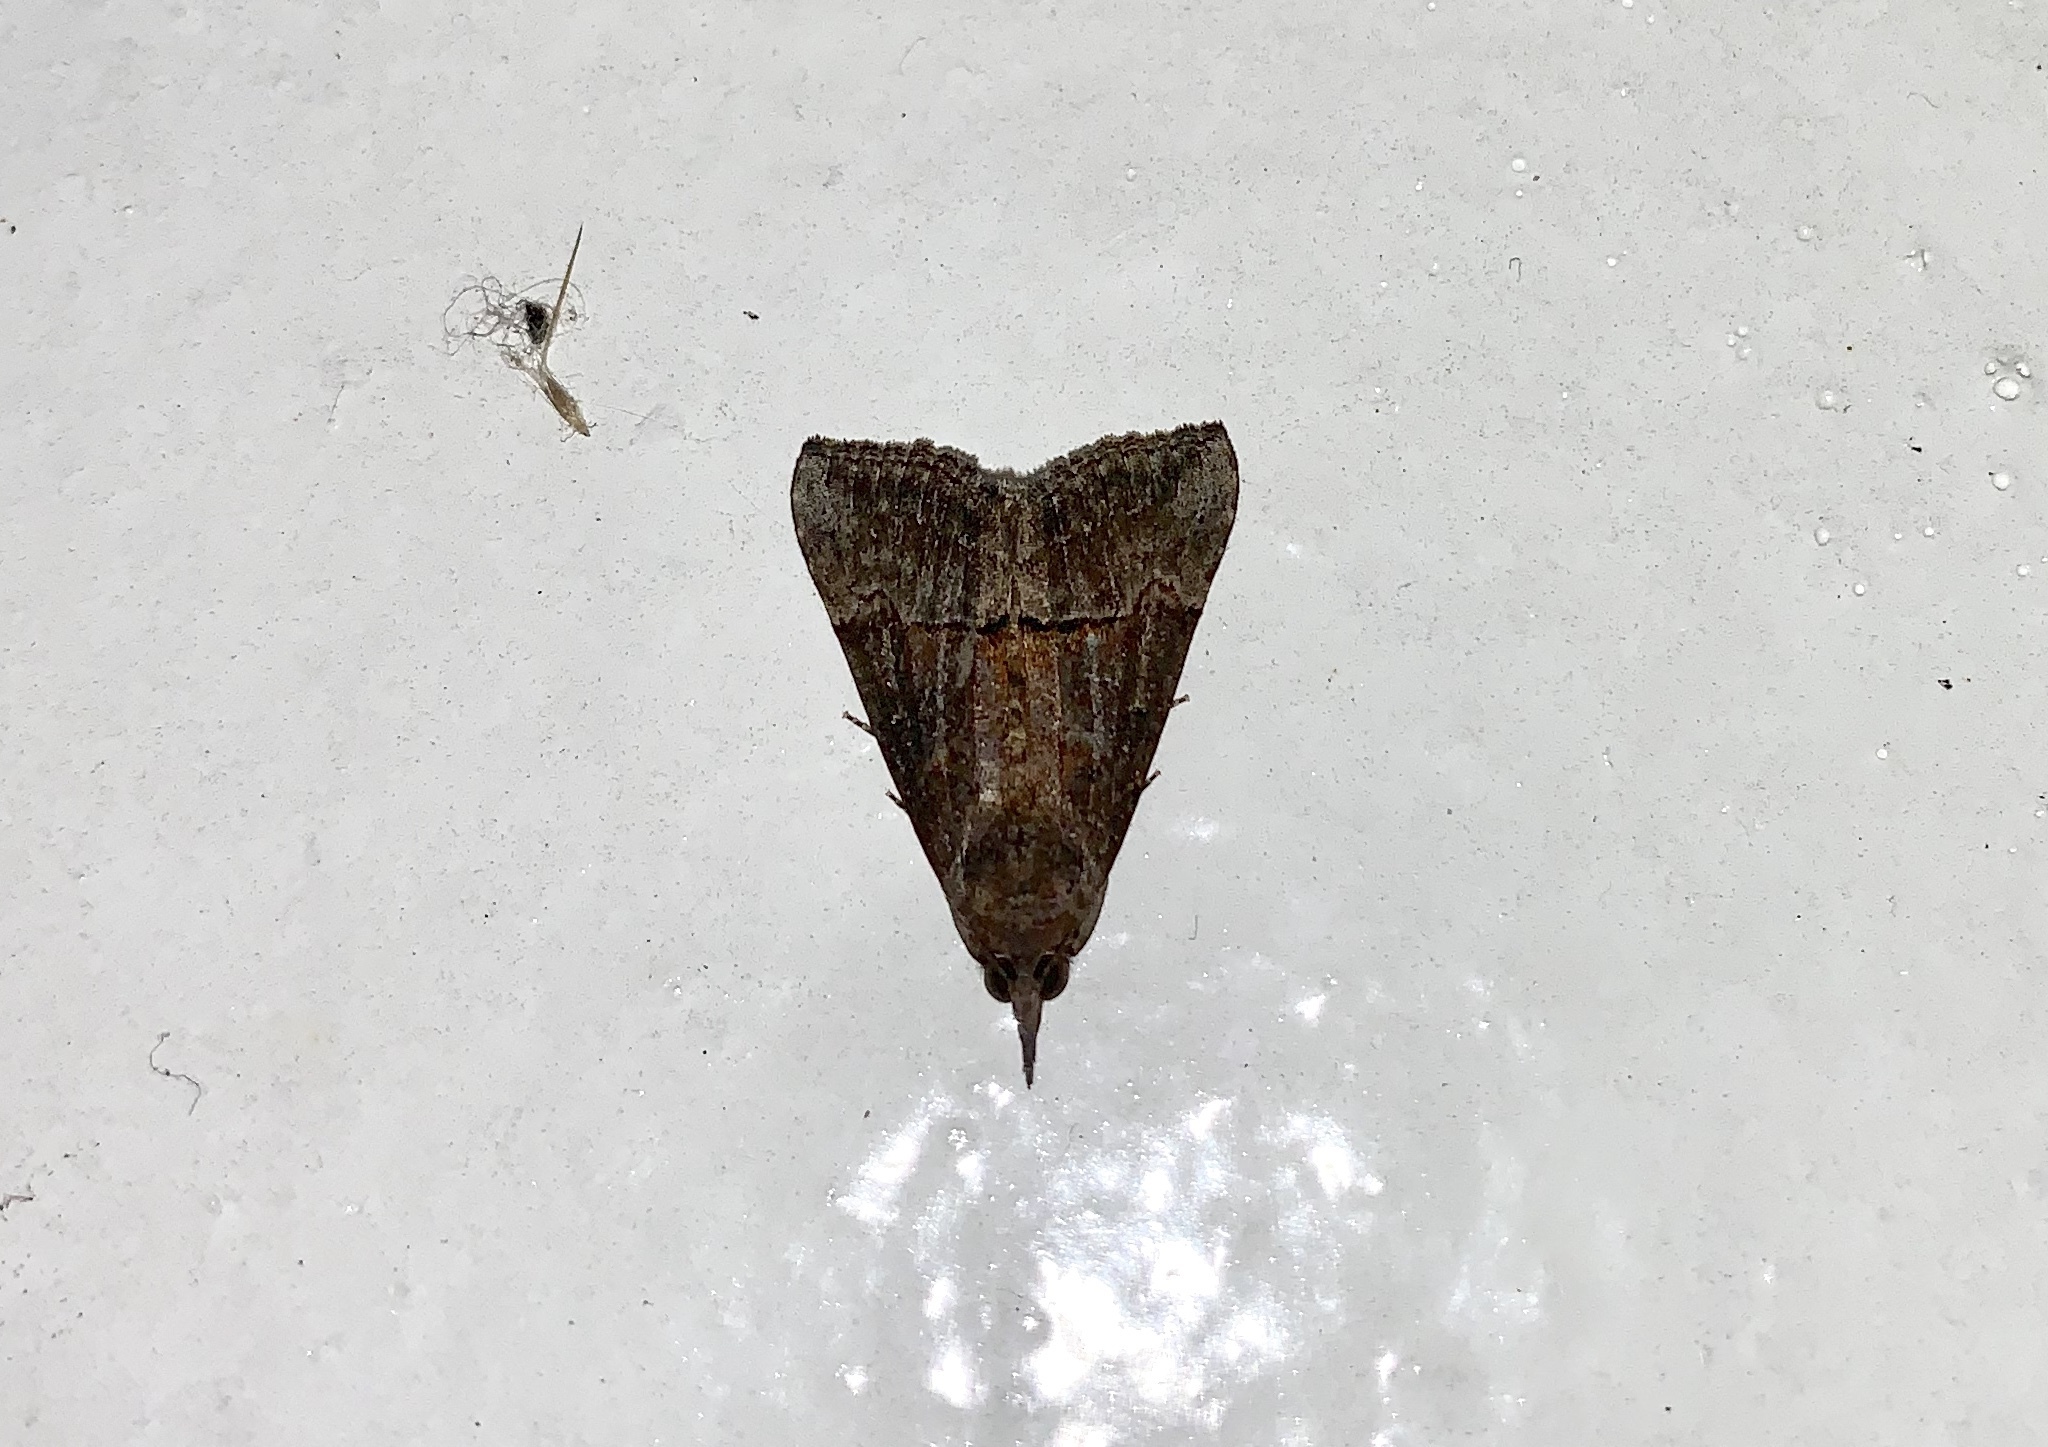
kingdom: Animalia
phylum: Arthropoda
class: Insecta
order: Lepidoptera
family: Erebidae
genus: Hypena
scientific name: Hypena scabra
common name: Green cloverworm
